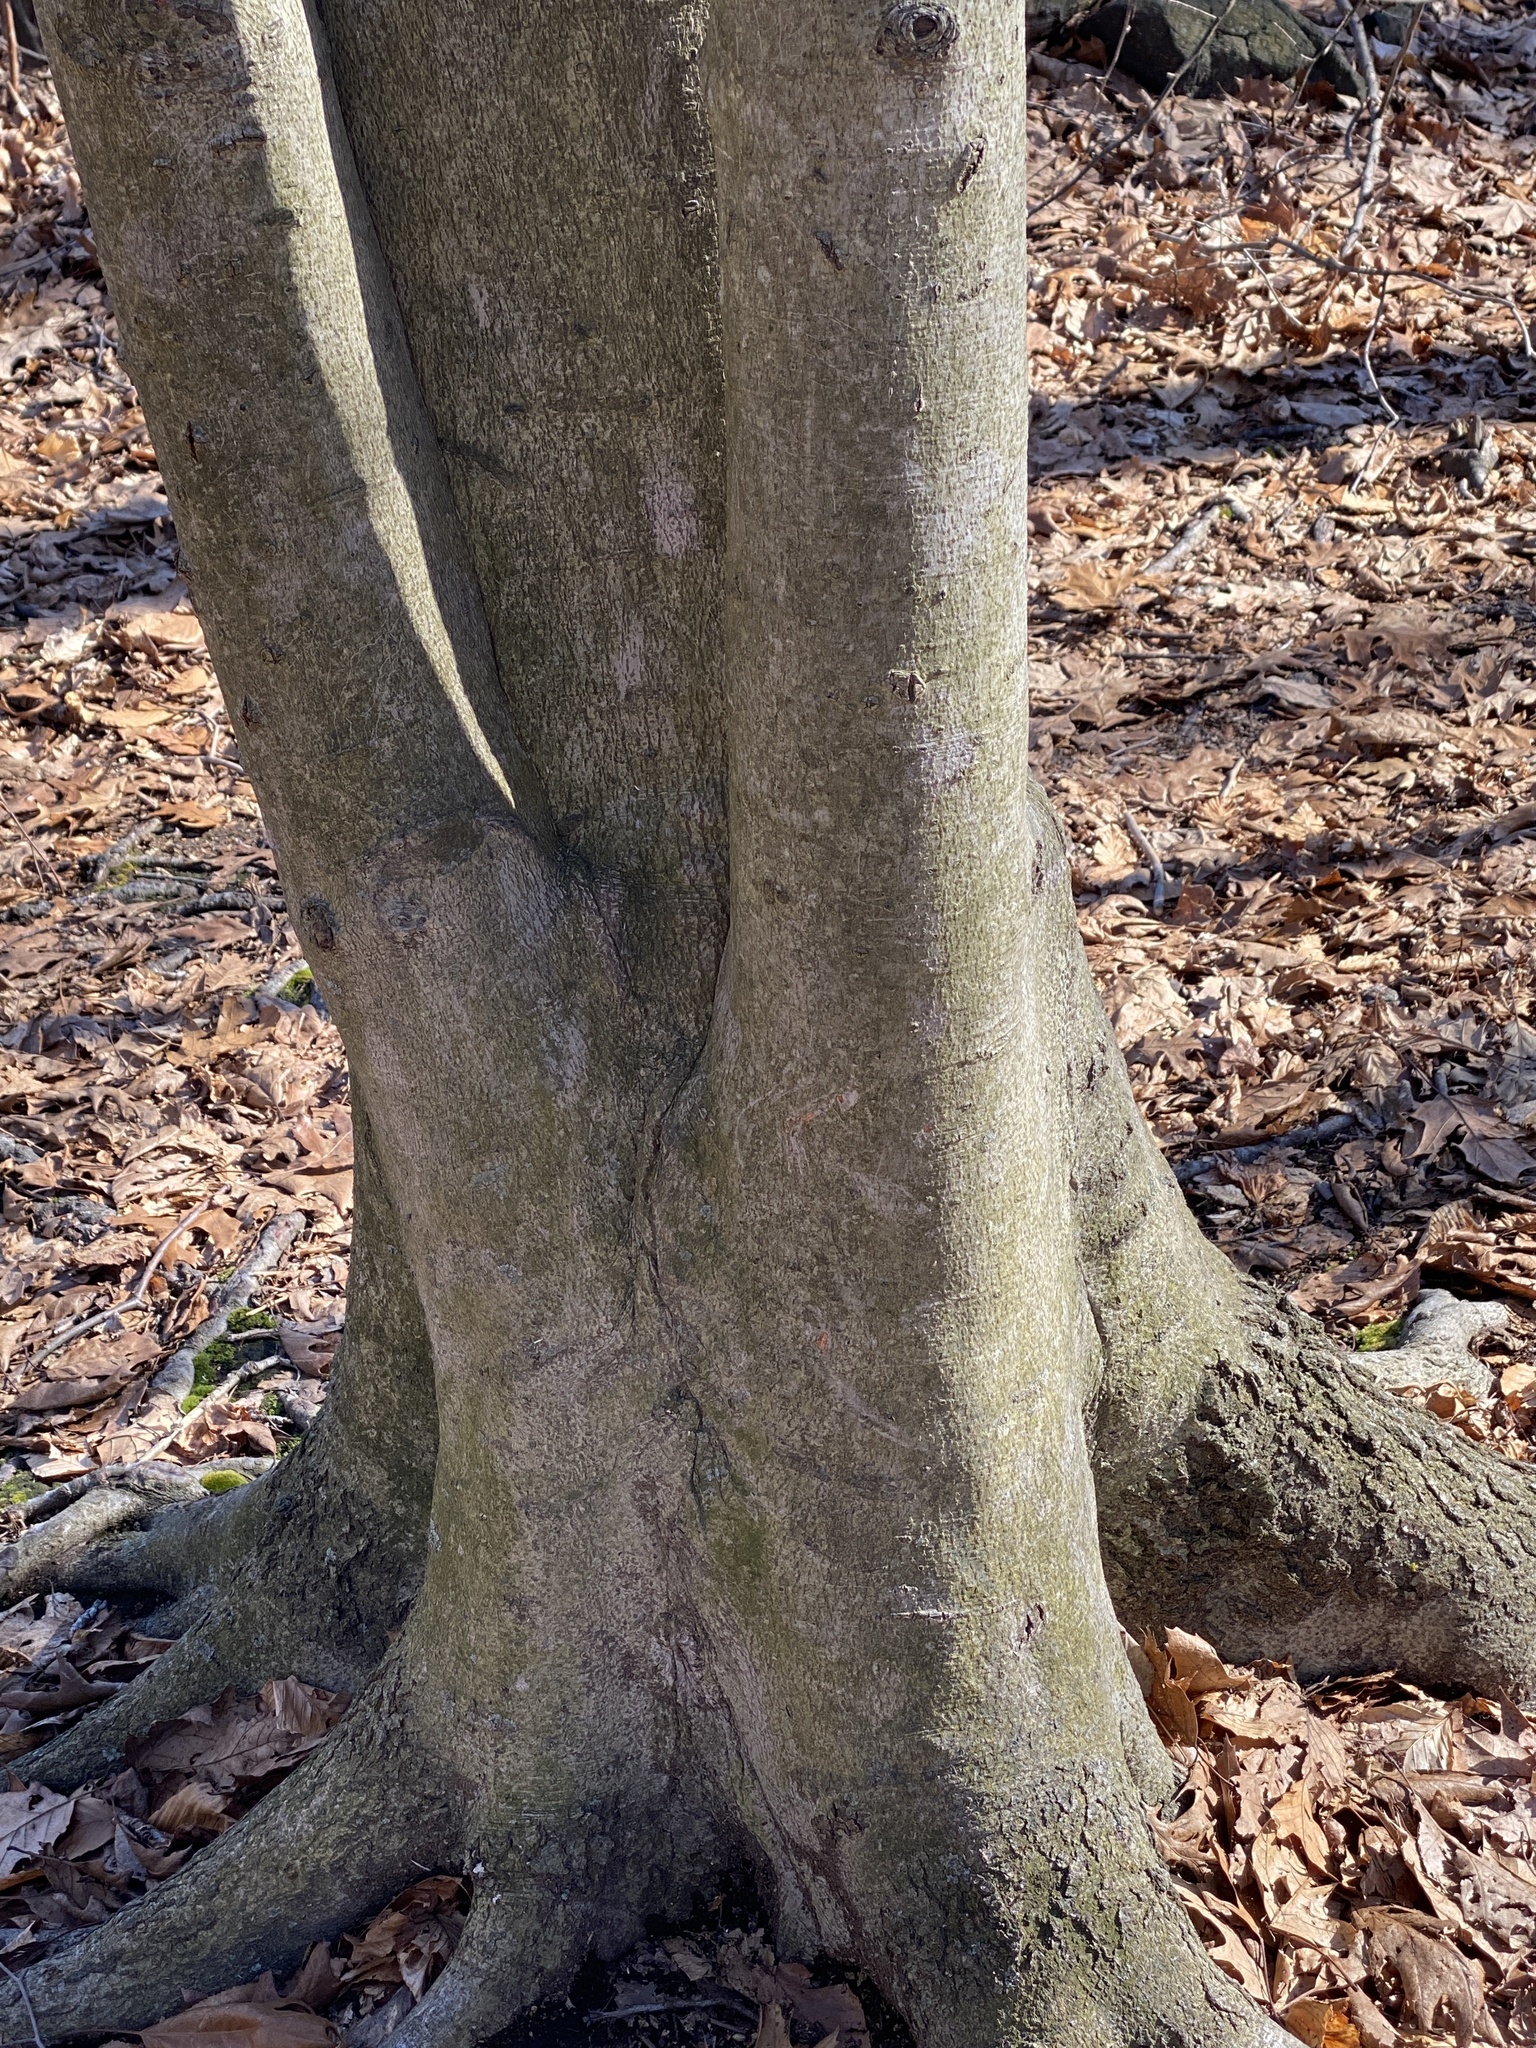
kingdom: Plantae
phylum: Tracheophyta
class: Magnoliopsida
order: Fagales
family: Fagaceae
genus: Fagus
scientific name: Fagus grandifolia
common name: American beech
